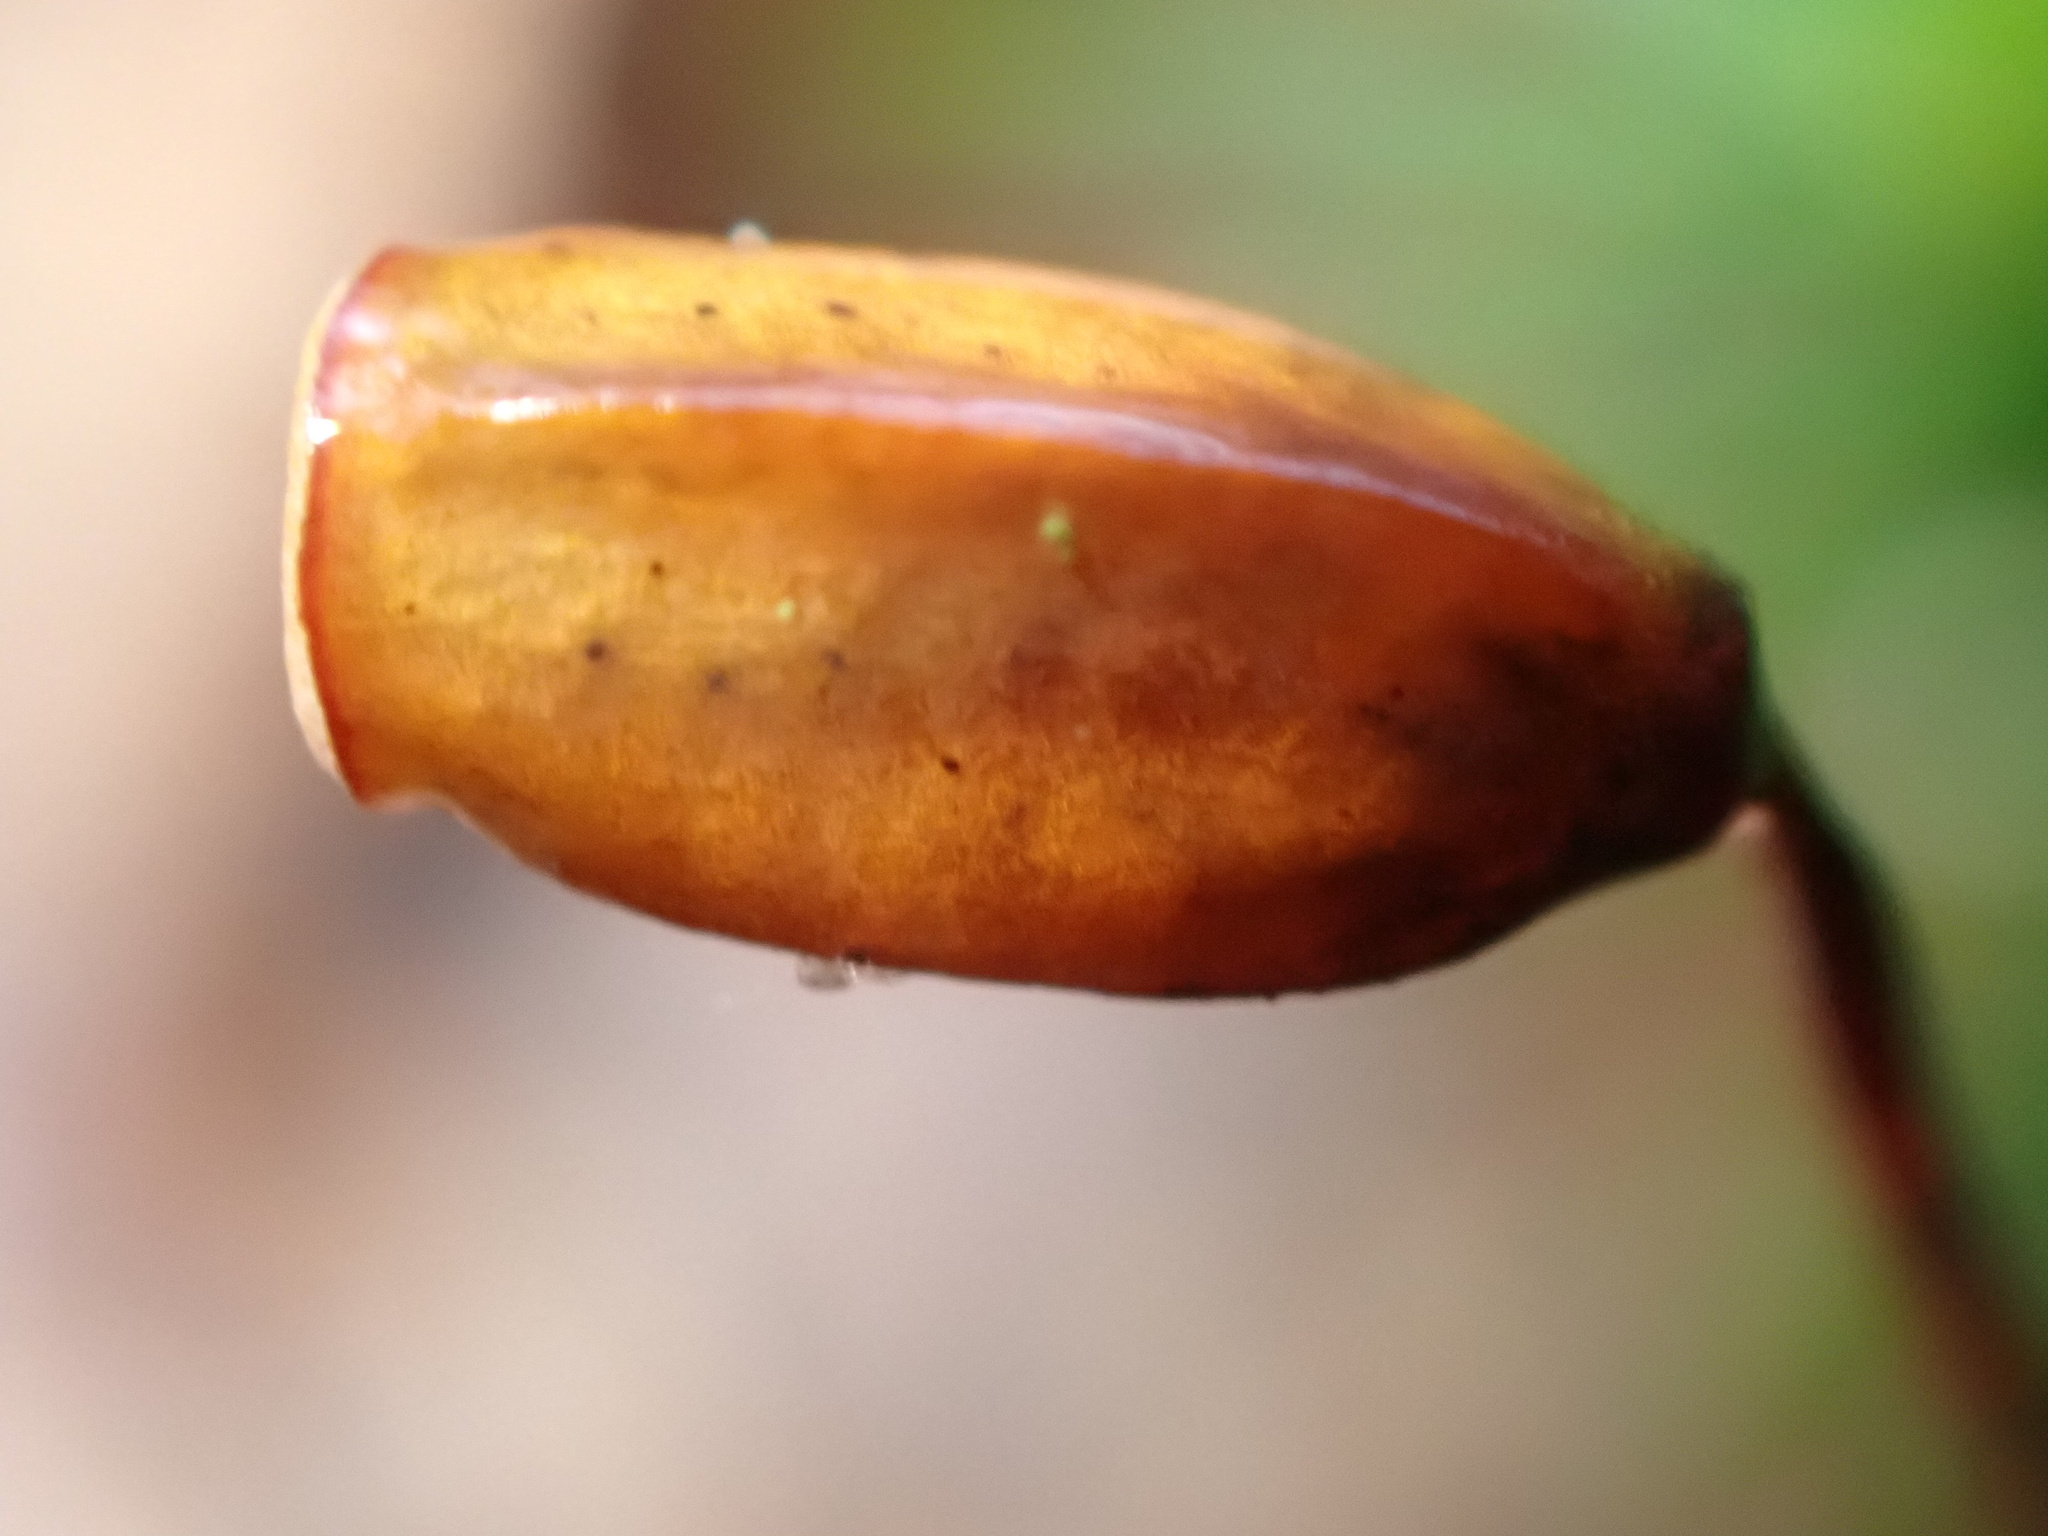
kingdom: Plantae
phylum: Bryophyta
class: Polytrichopsida
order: Polytrichales
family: Polytrichaceae
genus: Polytrichum
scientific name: Polytrichum formosum
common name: Bank haircap moss
